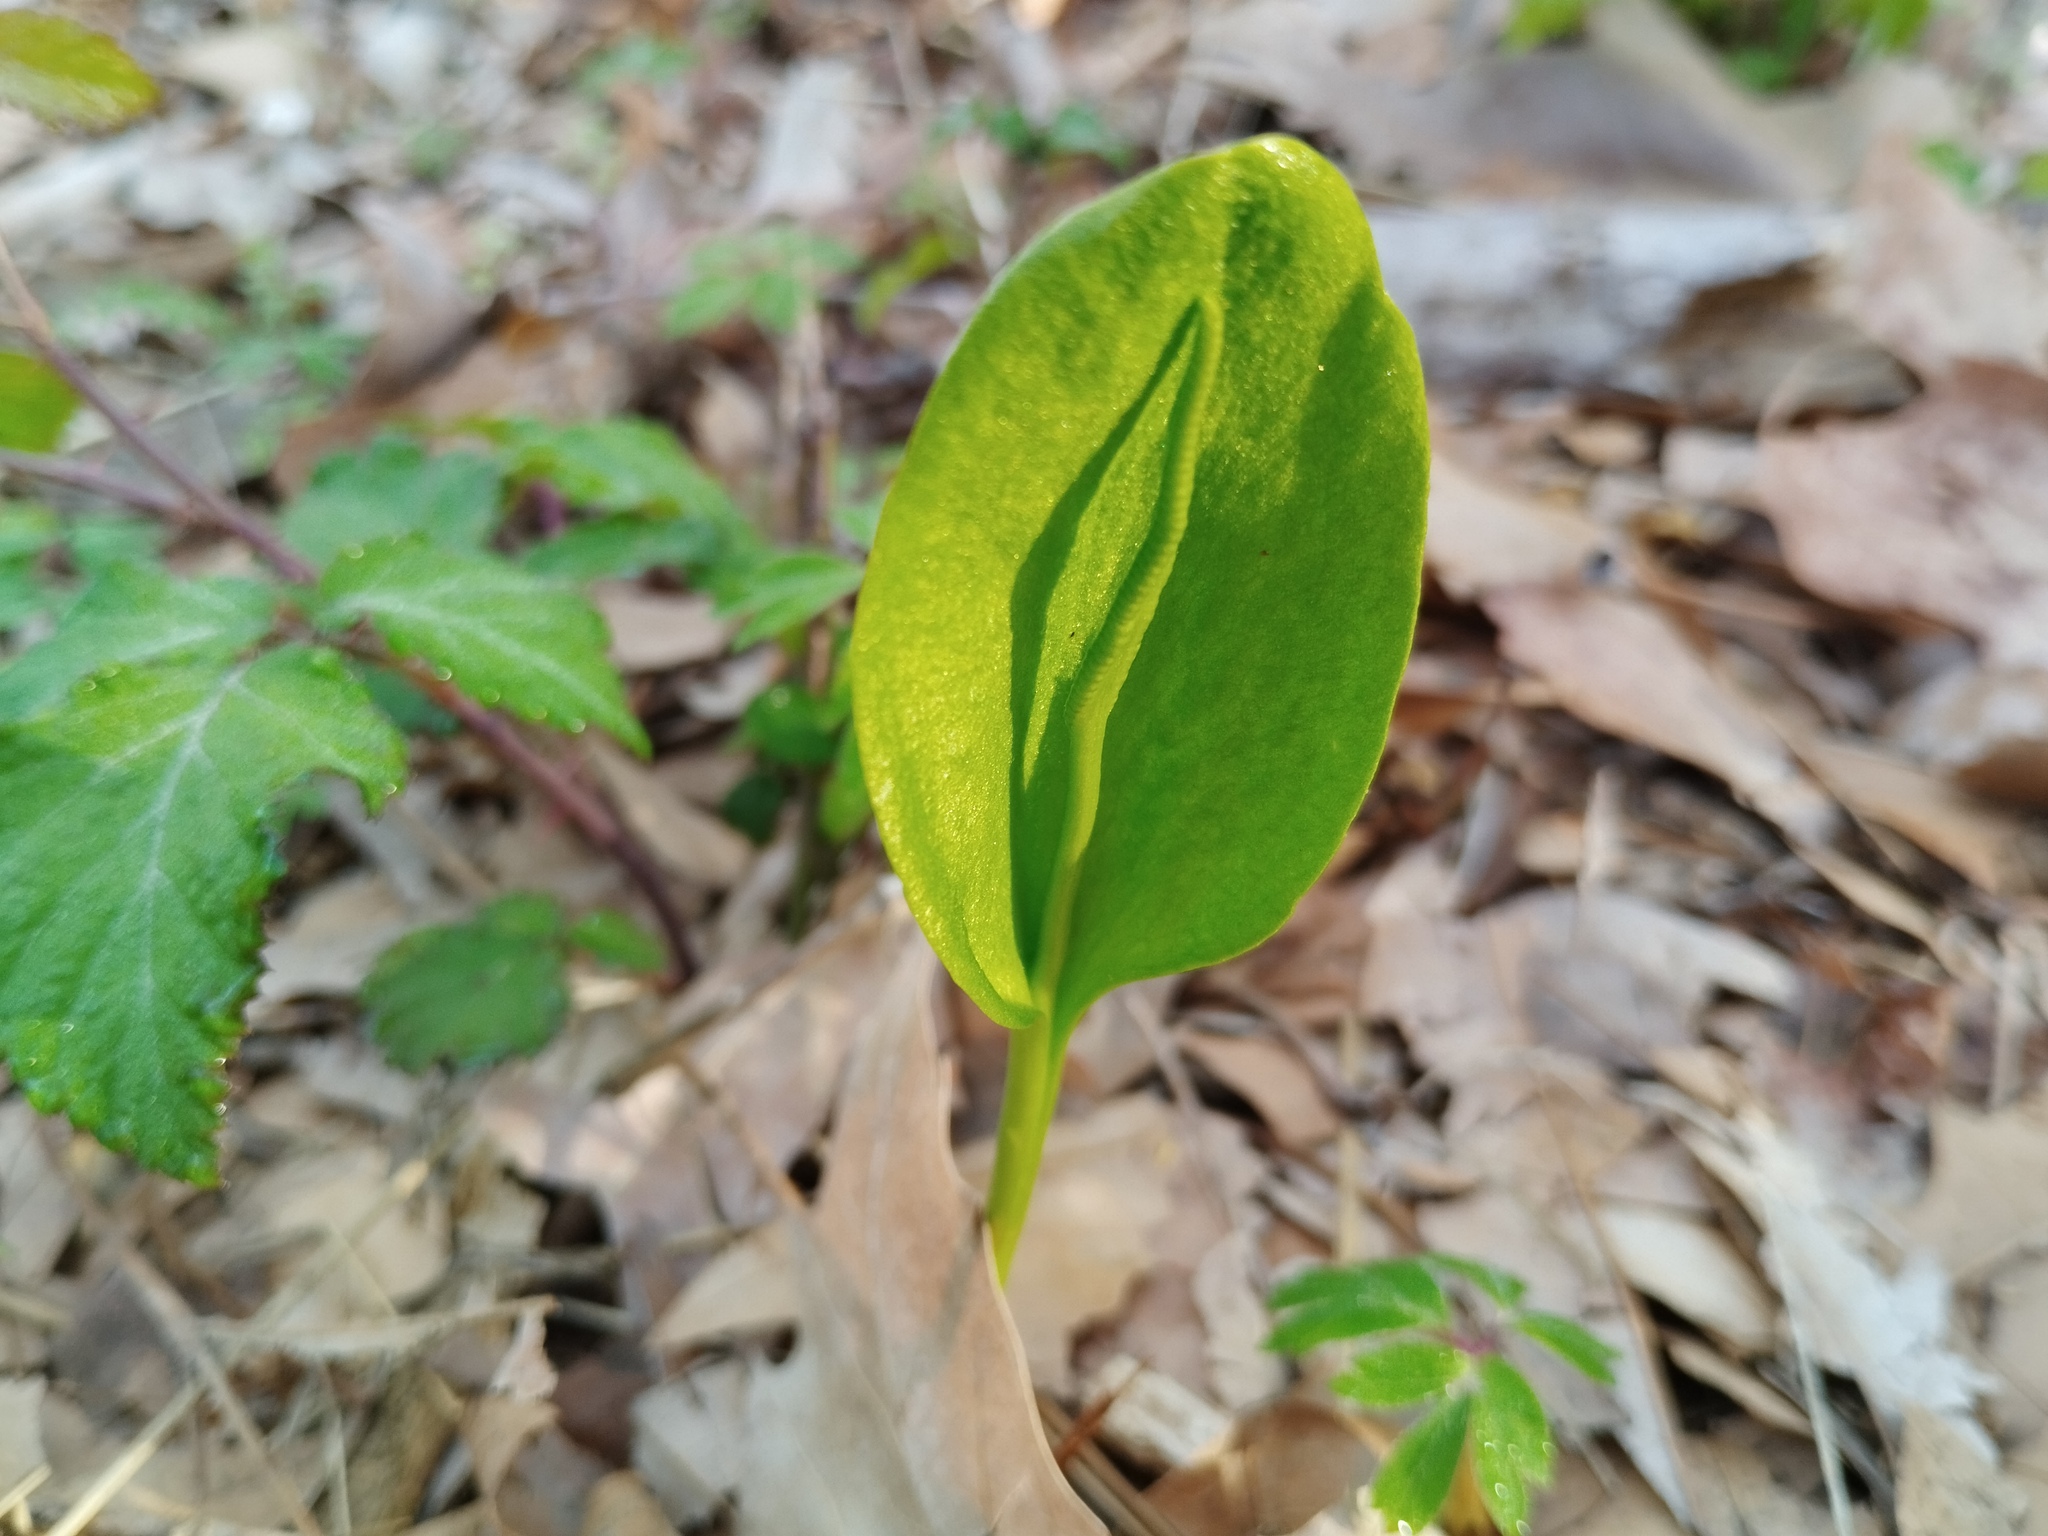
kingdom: Plantae
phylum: Tracheophyta
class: Polypodiopsida
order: Ophioglossales
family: Ophioglossaceae
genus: Ophioglossum
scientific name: Ophioglossum vulgatum
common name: Adder's-tongue
